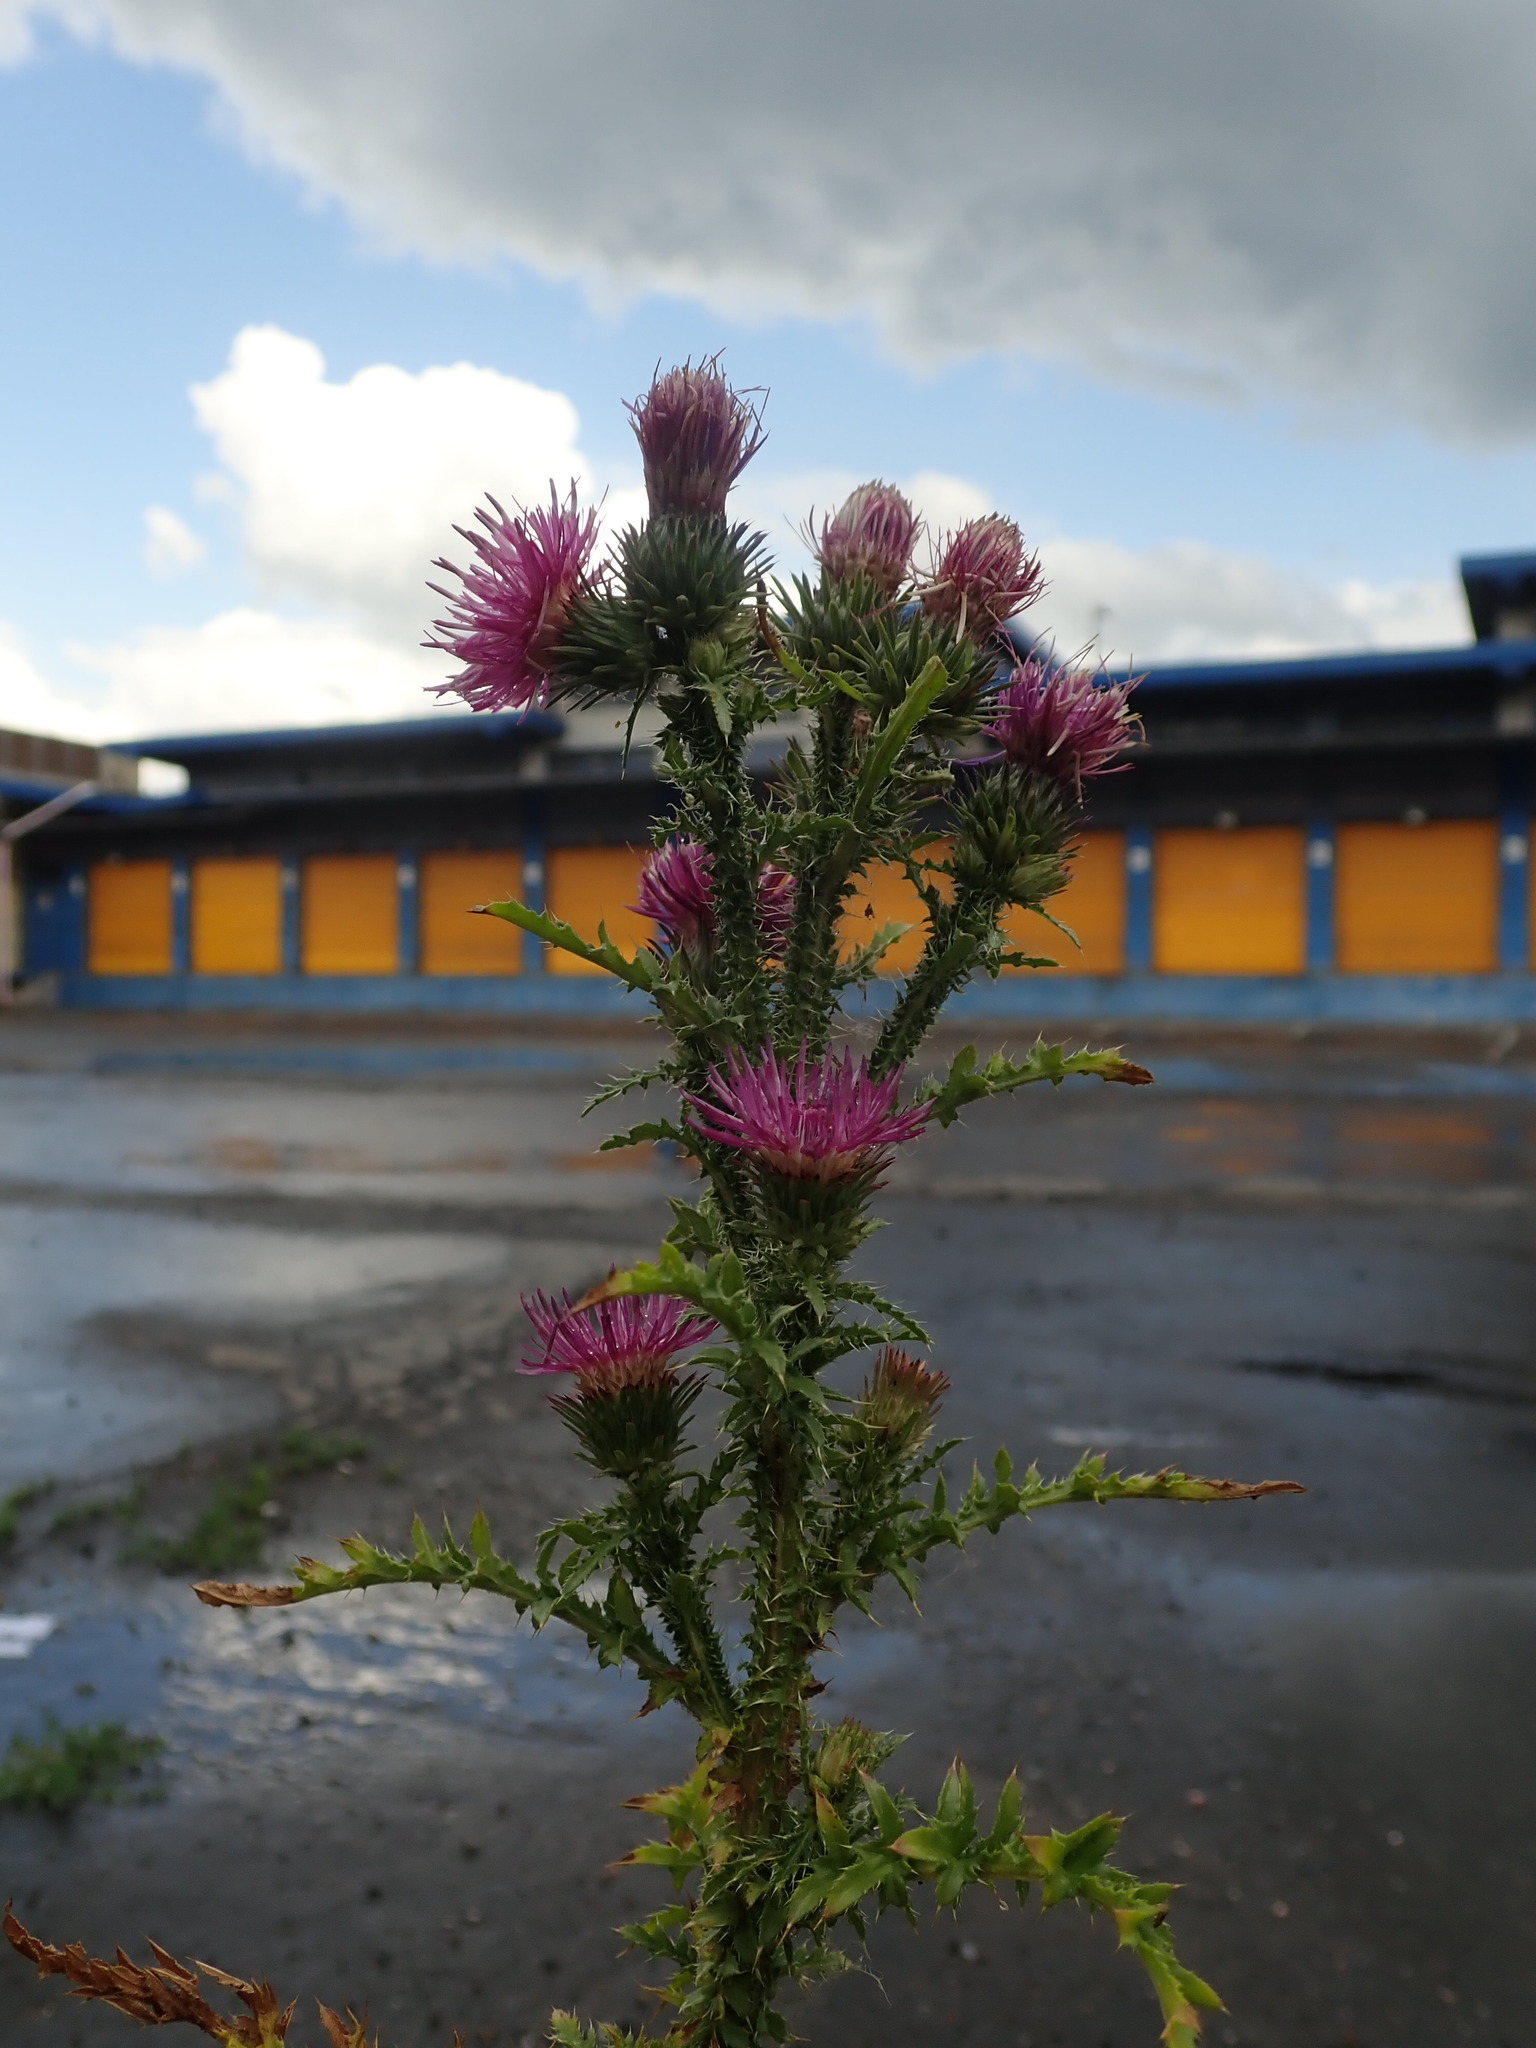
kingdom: Plantae
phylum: Tracheophyta
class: Magnoliopsida
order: Asterales
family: Asteraceae
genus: Carduus
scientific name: Carduus acanthoides
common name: Plumeless thistle
